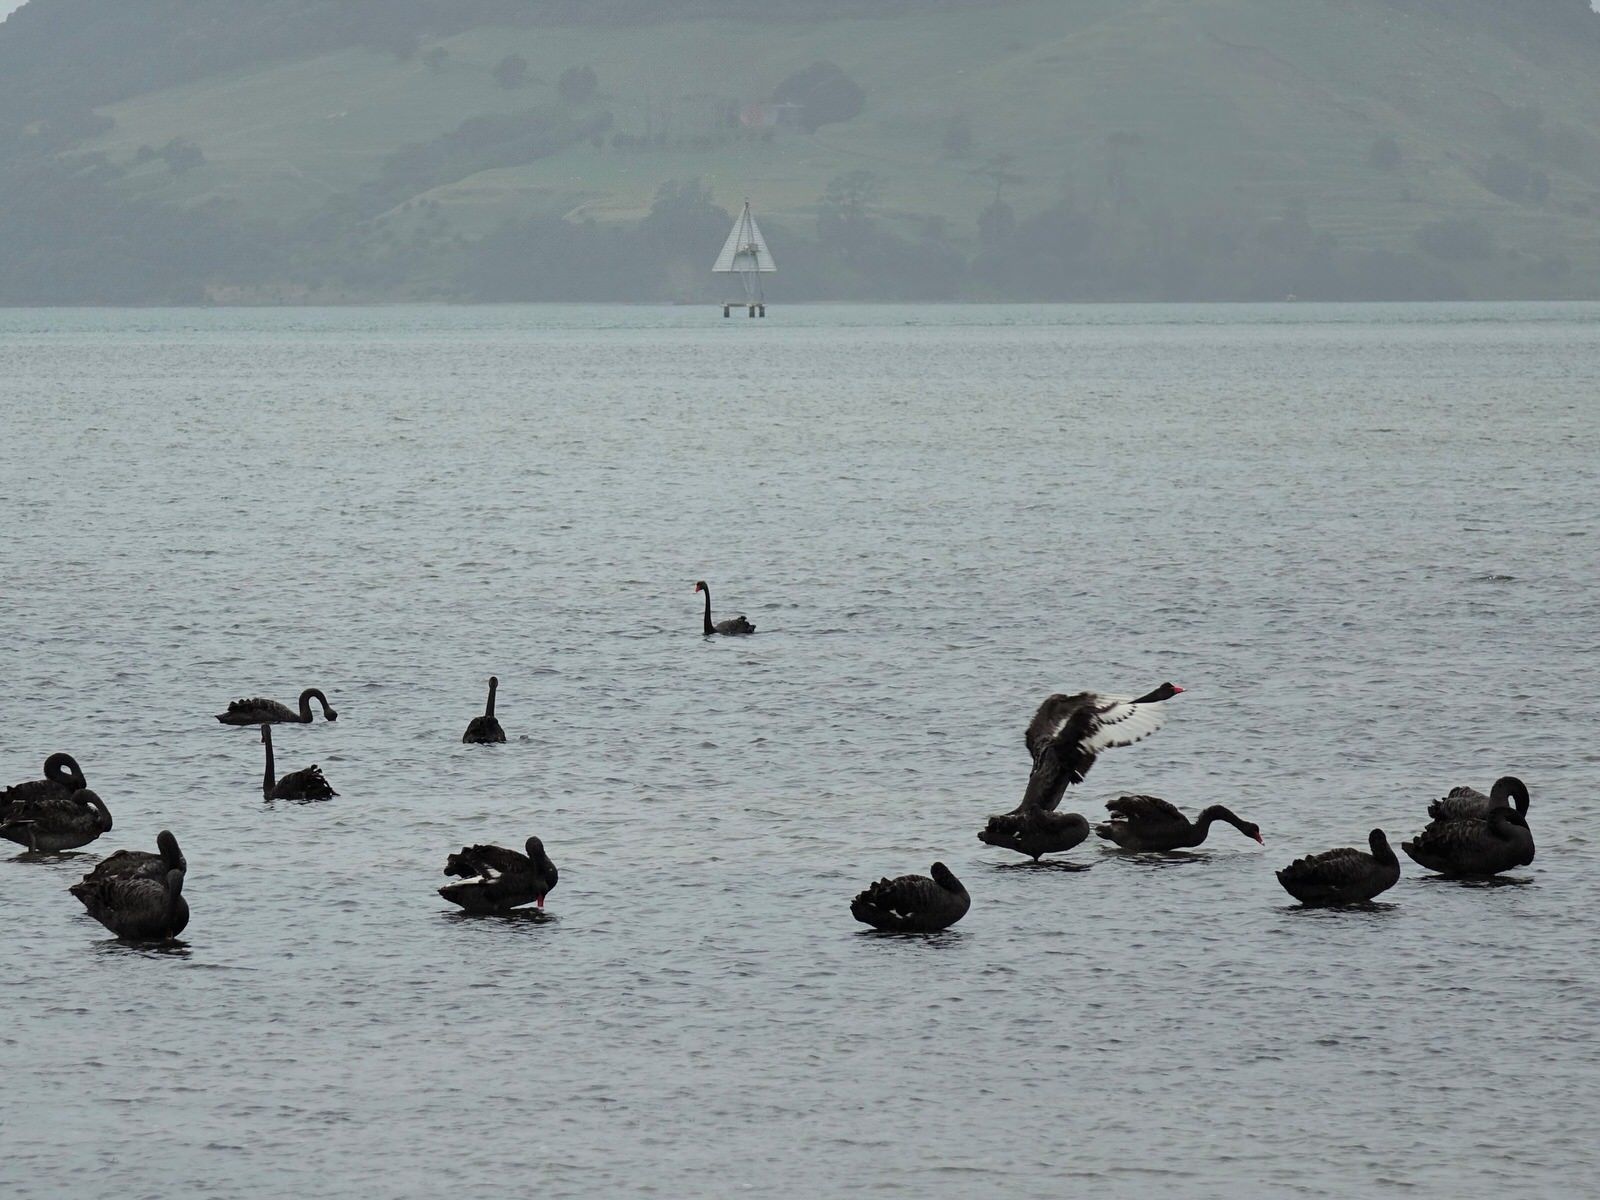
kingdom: Animalia
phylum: Chordata
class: Aves
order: Anseriformes
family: Anatidae
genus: Cygnus
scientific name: Cygnus atratus
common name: Black swan
